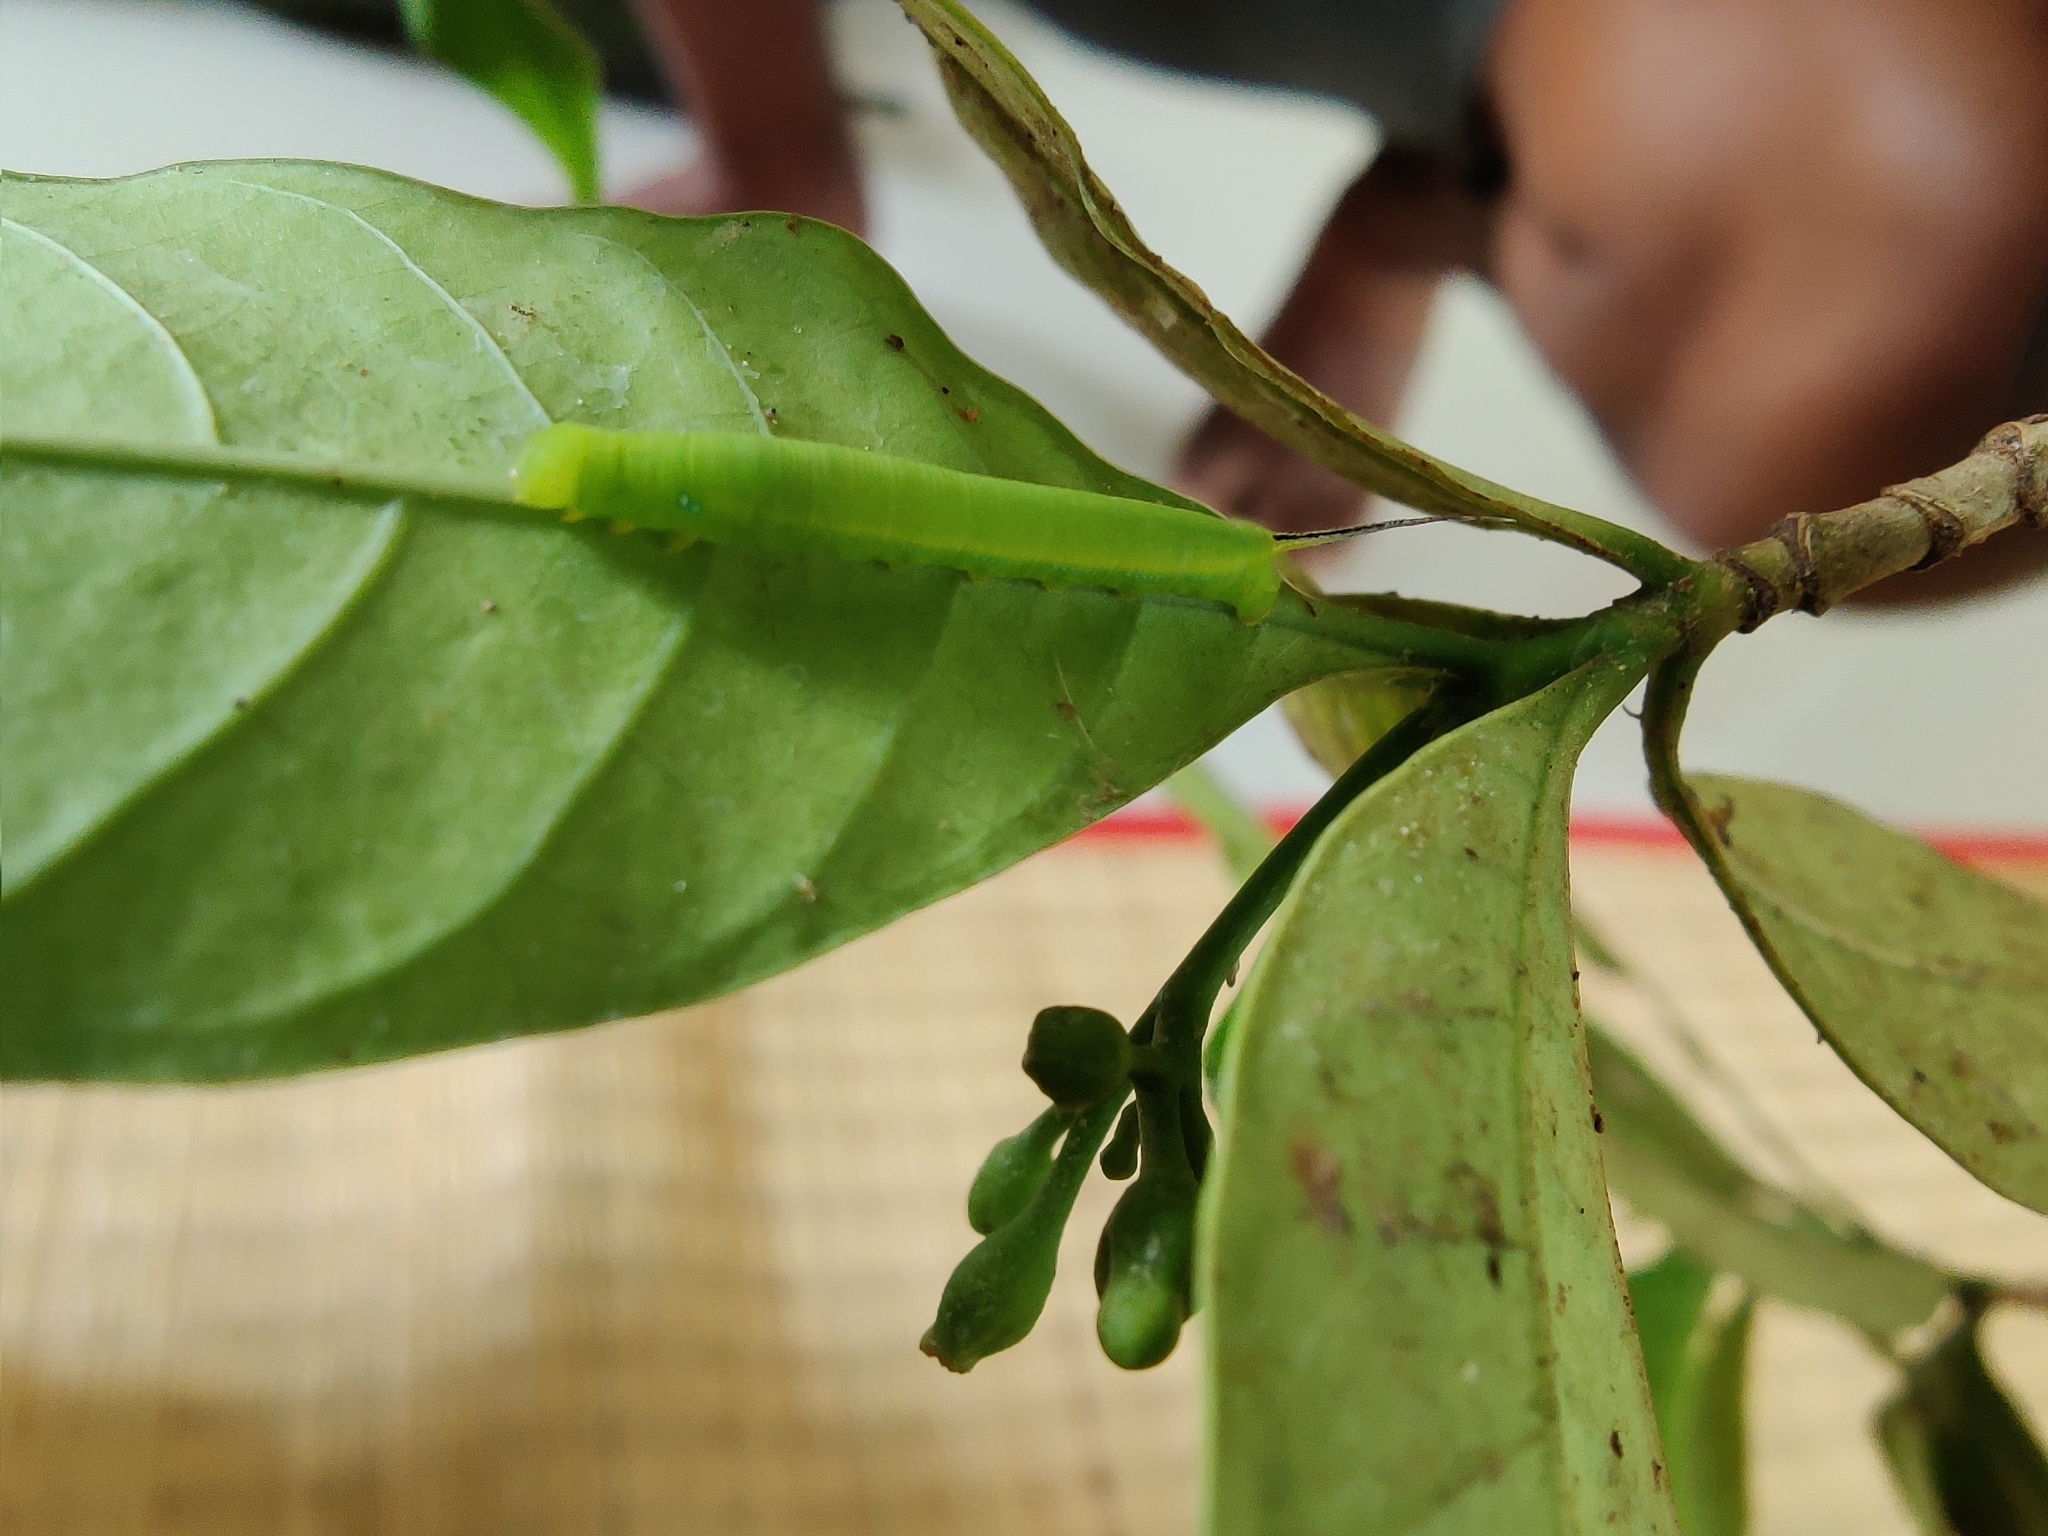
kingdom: Animalia
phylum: Arthropoda
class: Insecta
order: Lepidoptera
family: Sphingidae
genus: Daphnis
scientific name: Daphnis nerii
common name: Oleander hawk-moth
